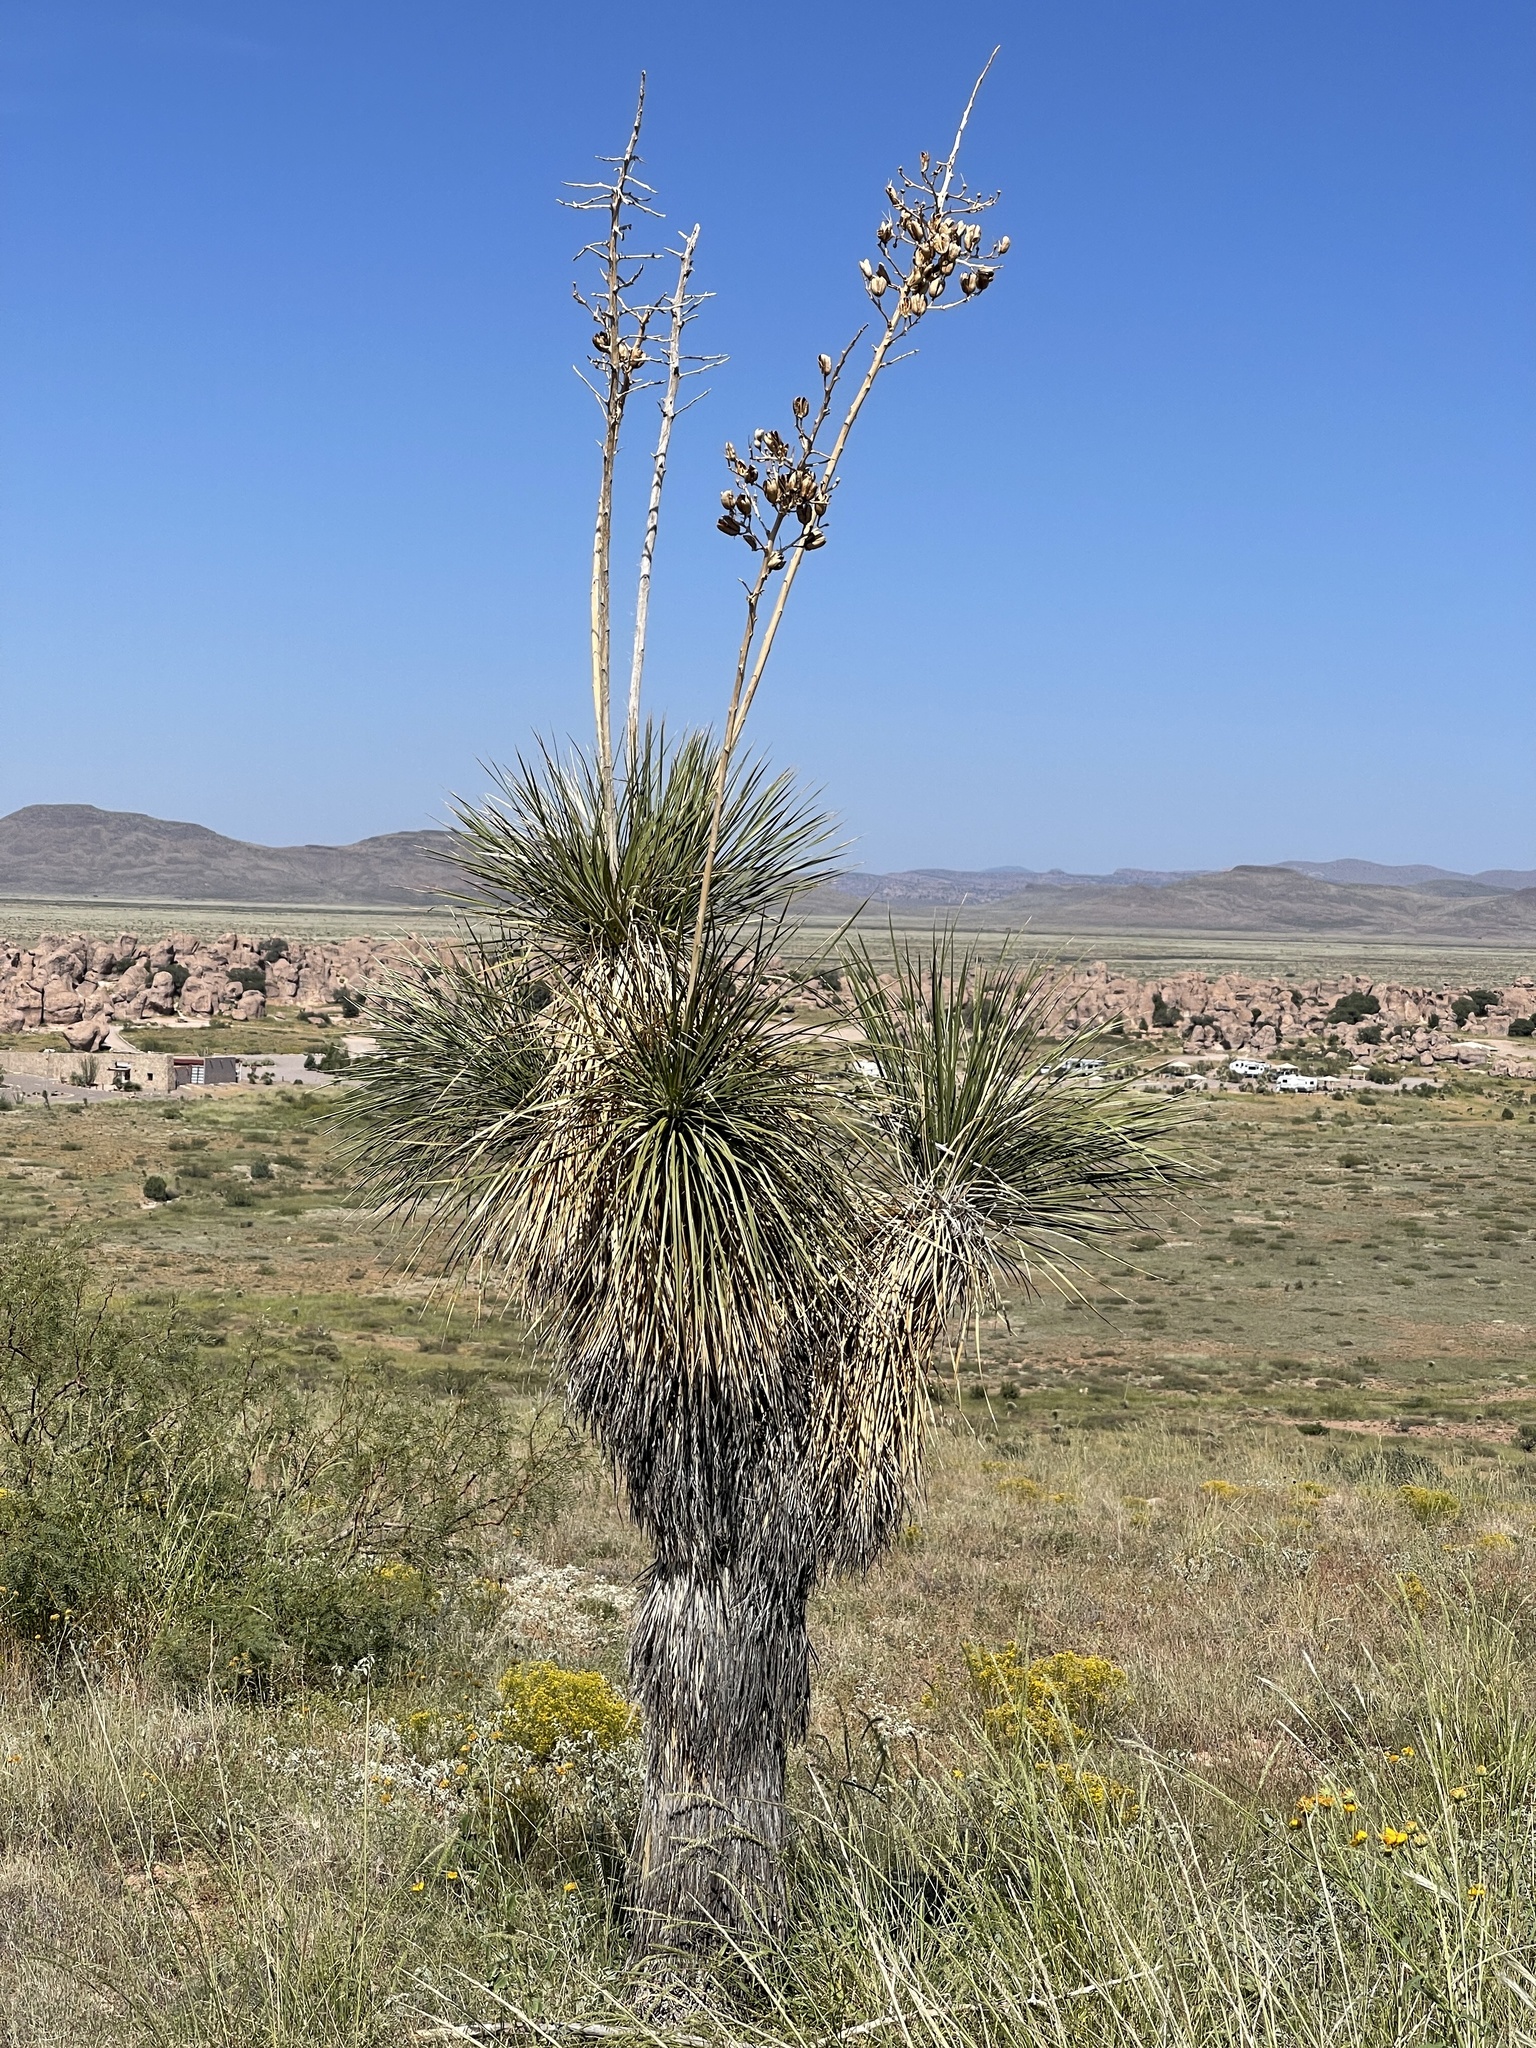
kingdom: Plantae
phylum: Tracheophyta
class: Liliopsida
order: Asparagales
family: Asparagaceae
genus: Yucca
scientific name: Yucca elata
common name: Palmella
